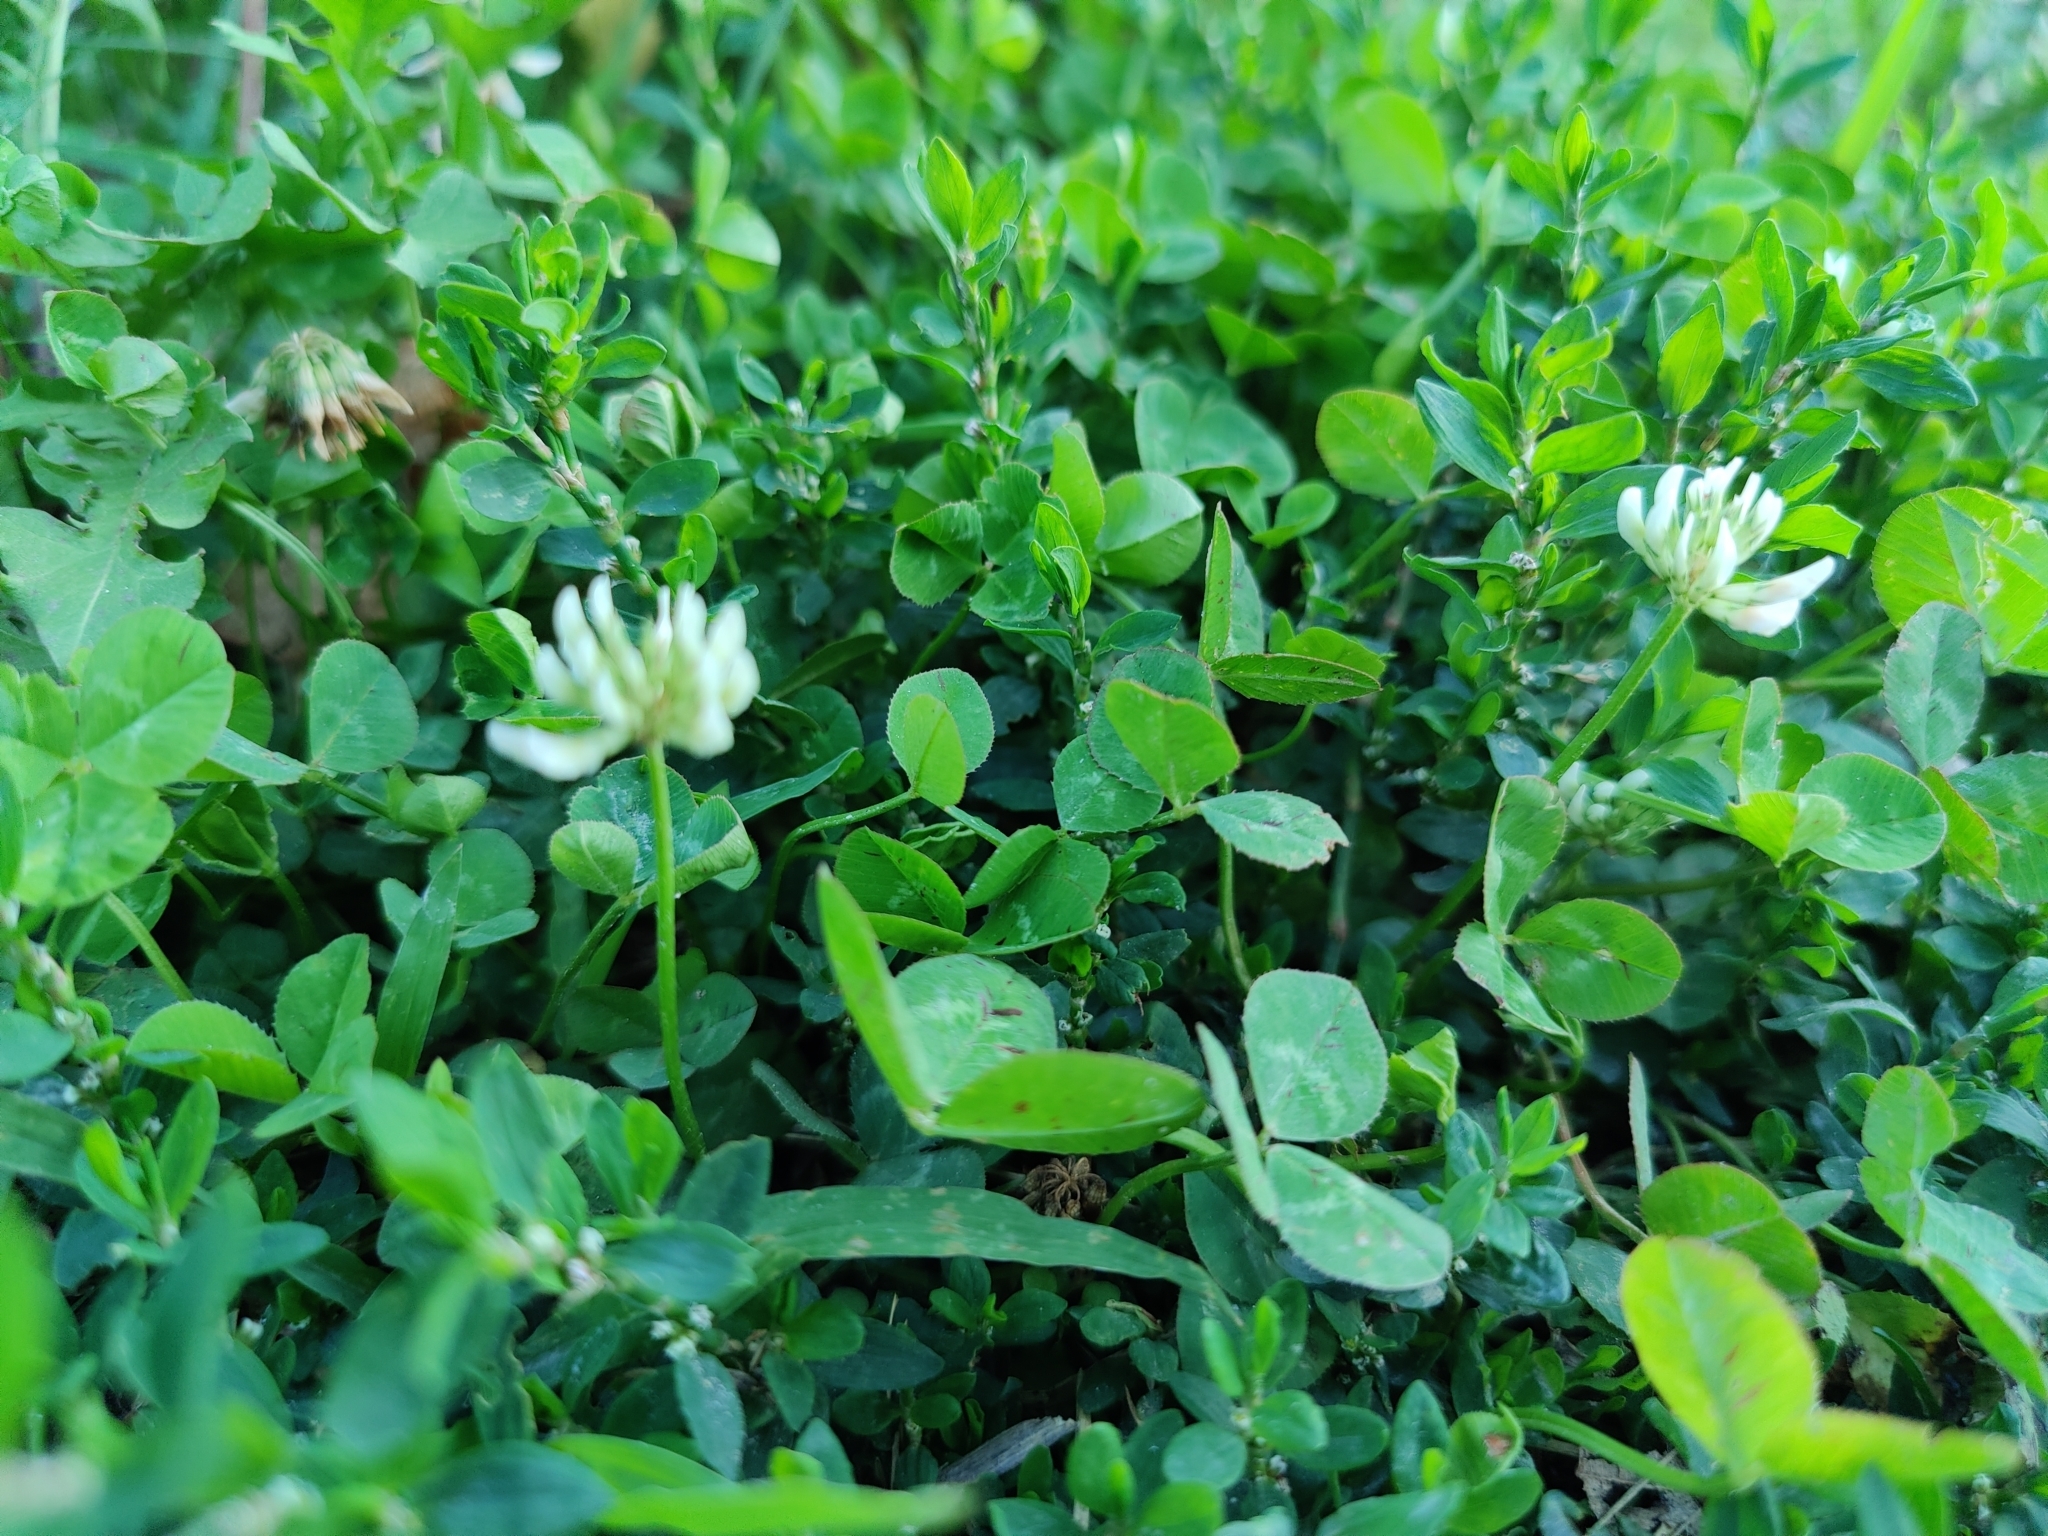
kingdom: Plantae
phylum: Tracheophyta
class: Magnoliopsida
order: Fabales
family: Fabaceae
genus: Trifolium
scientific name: Trifolium repens
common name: White clover
